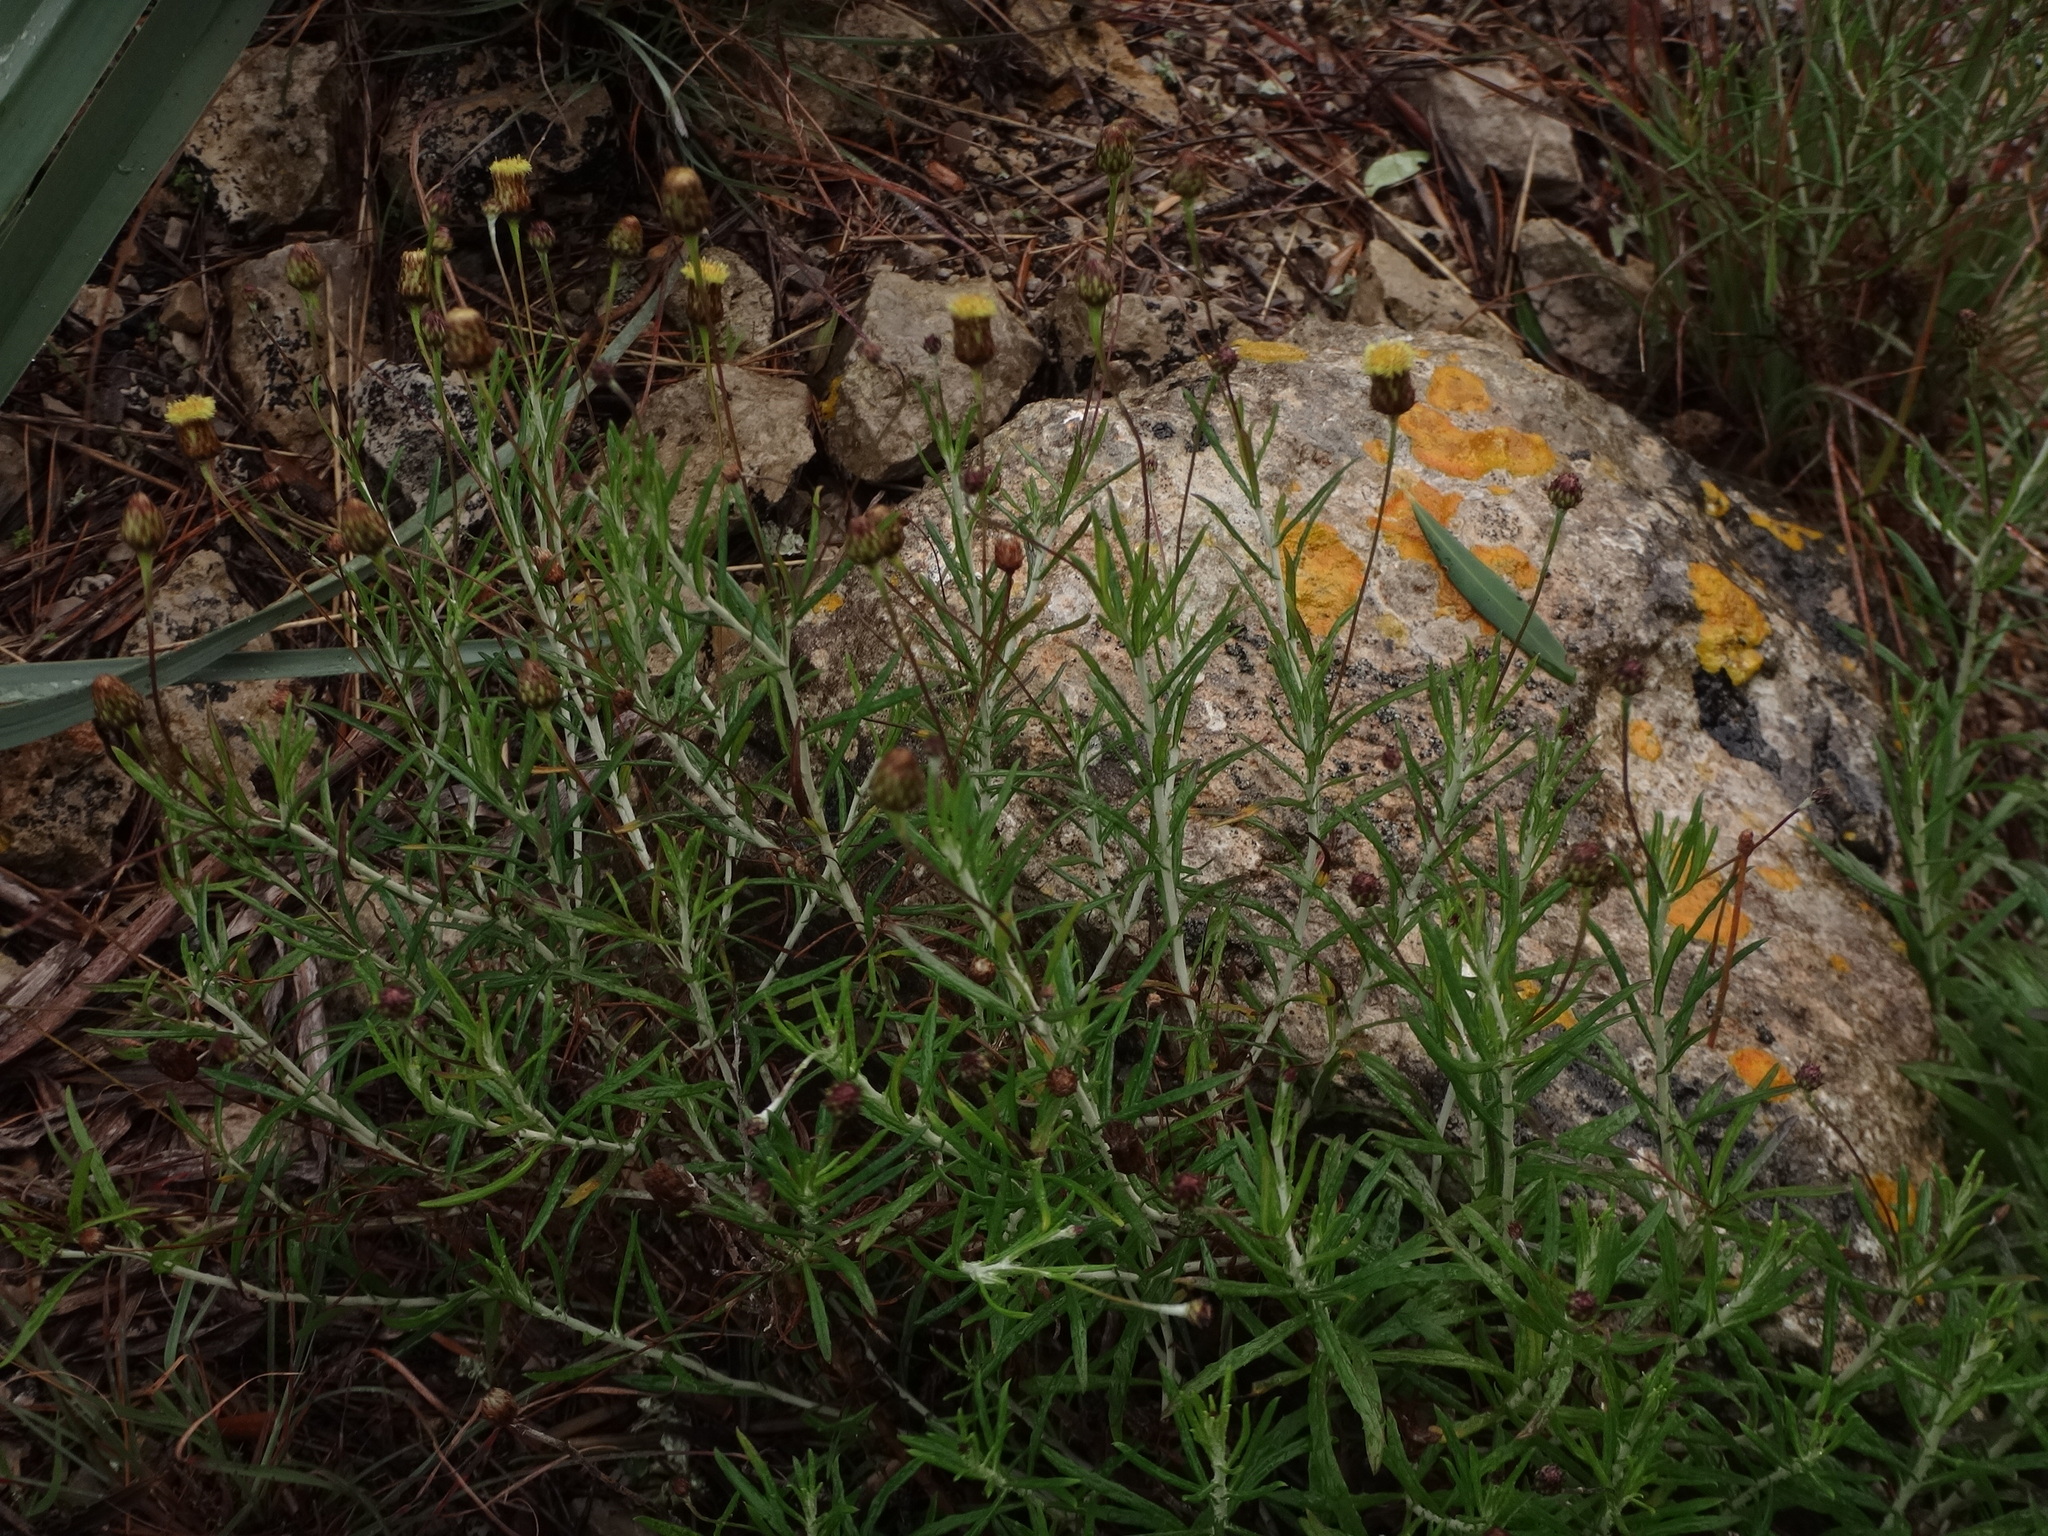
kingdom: Plantae
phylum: Tracheophyta
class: Magnoliopsida
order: Asterales
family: Asteraceae
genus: Phagnalon
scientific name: Phagnalon saxatile
